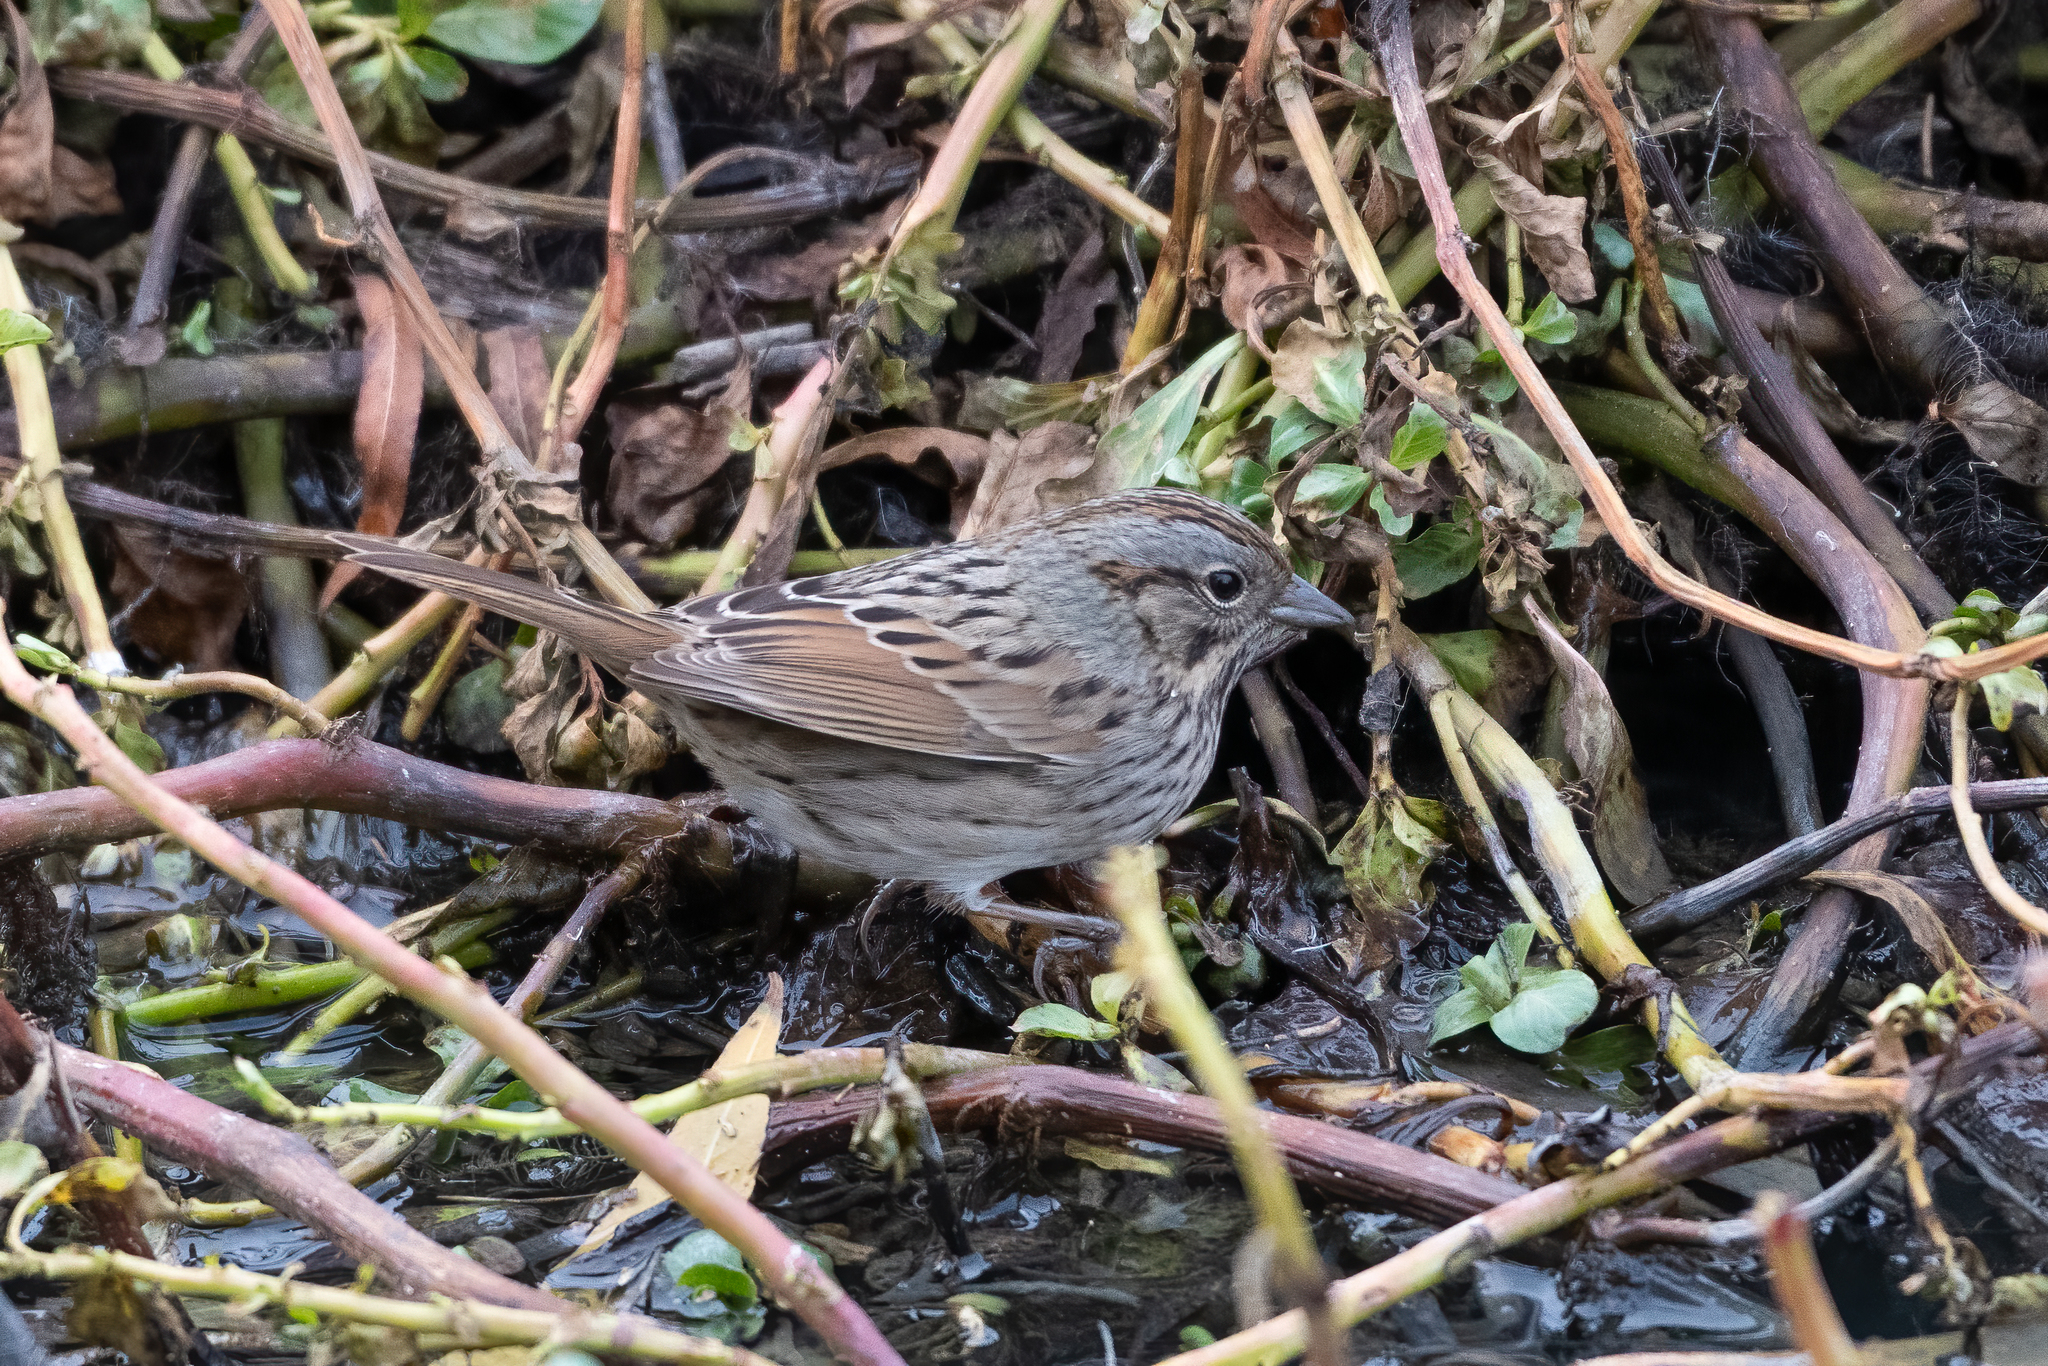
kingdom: Animalia
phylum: Chordata
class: Aves
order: Passeriformes
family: Passerellidae
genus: Melospiza
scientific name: Melospiza melodia
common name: Song sparrow
